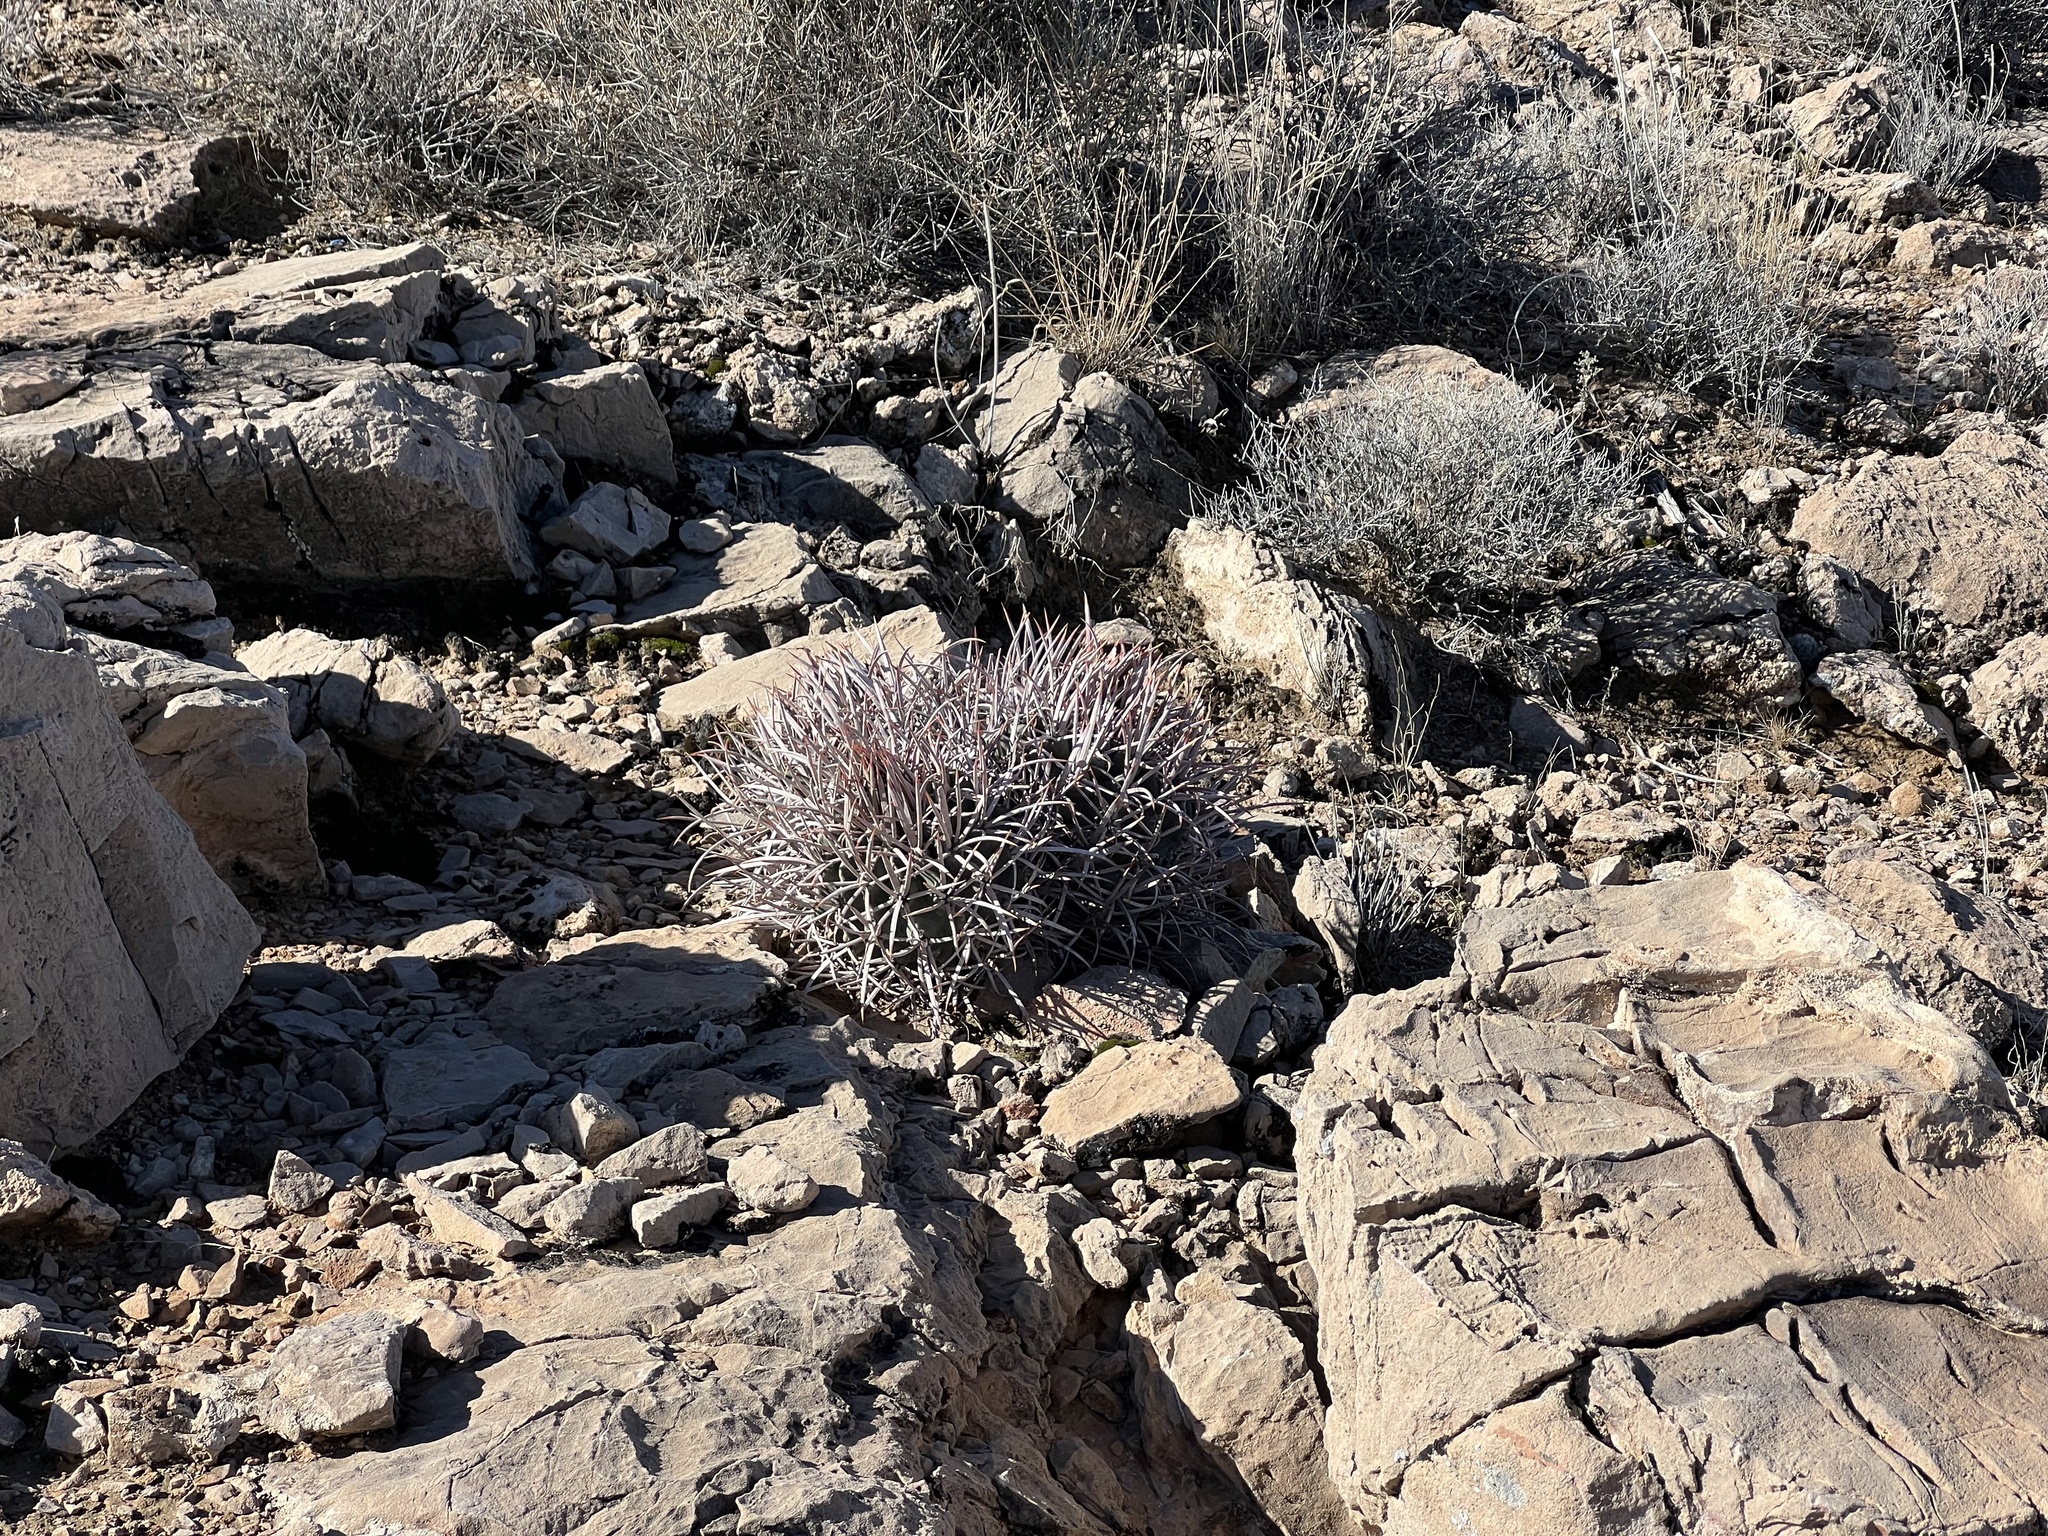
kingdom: Plantae
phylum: Tracheophyta
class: Magnoliopsida
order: Caryophyllales
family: Cactaceae
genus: Echinocactus
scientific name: Echinocactus polycephalus
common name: Cottontop cactus
